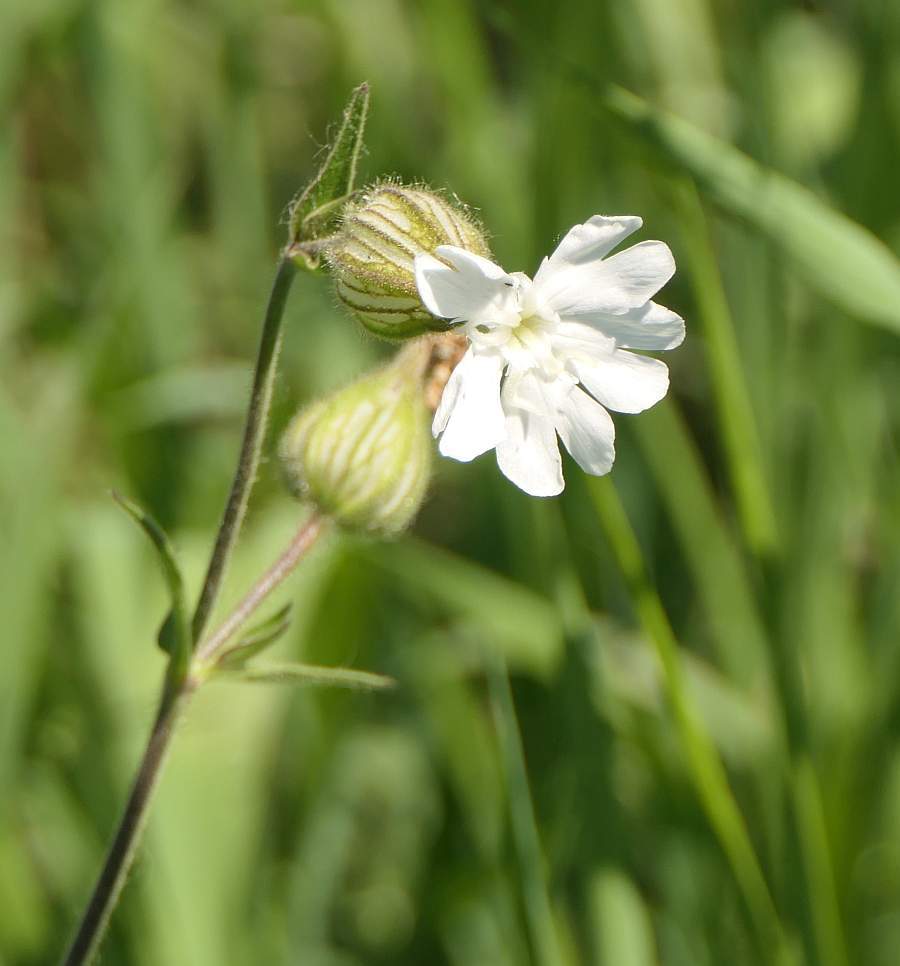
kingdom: Plantae
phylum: Tracheophyta
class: Magnoliopsida
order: Caryophyllales
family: Caryophyllaceae
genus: Silene
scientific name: Silene latifolia
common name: White campion
